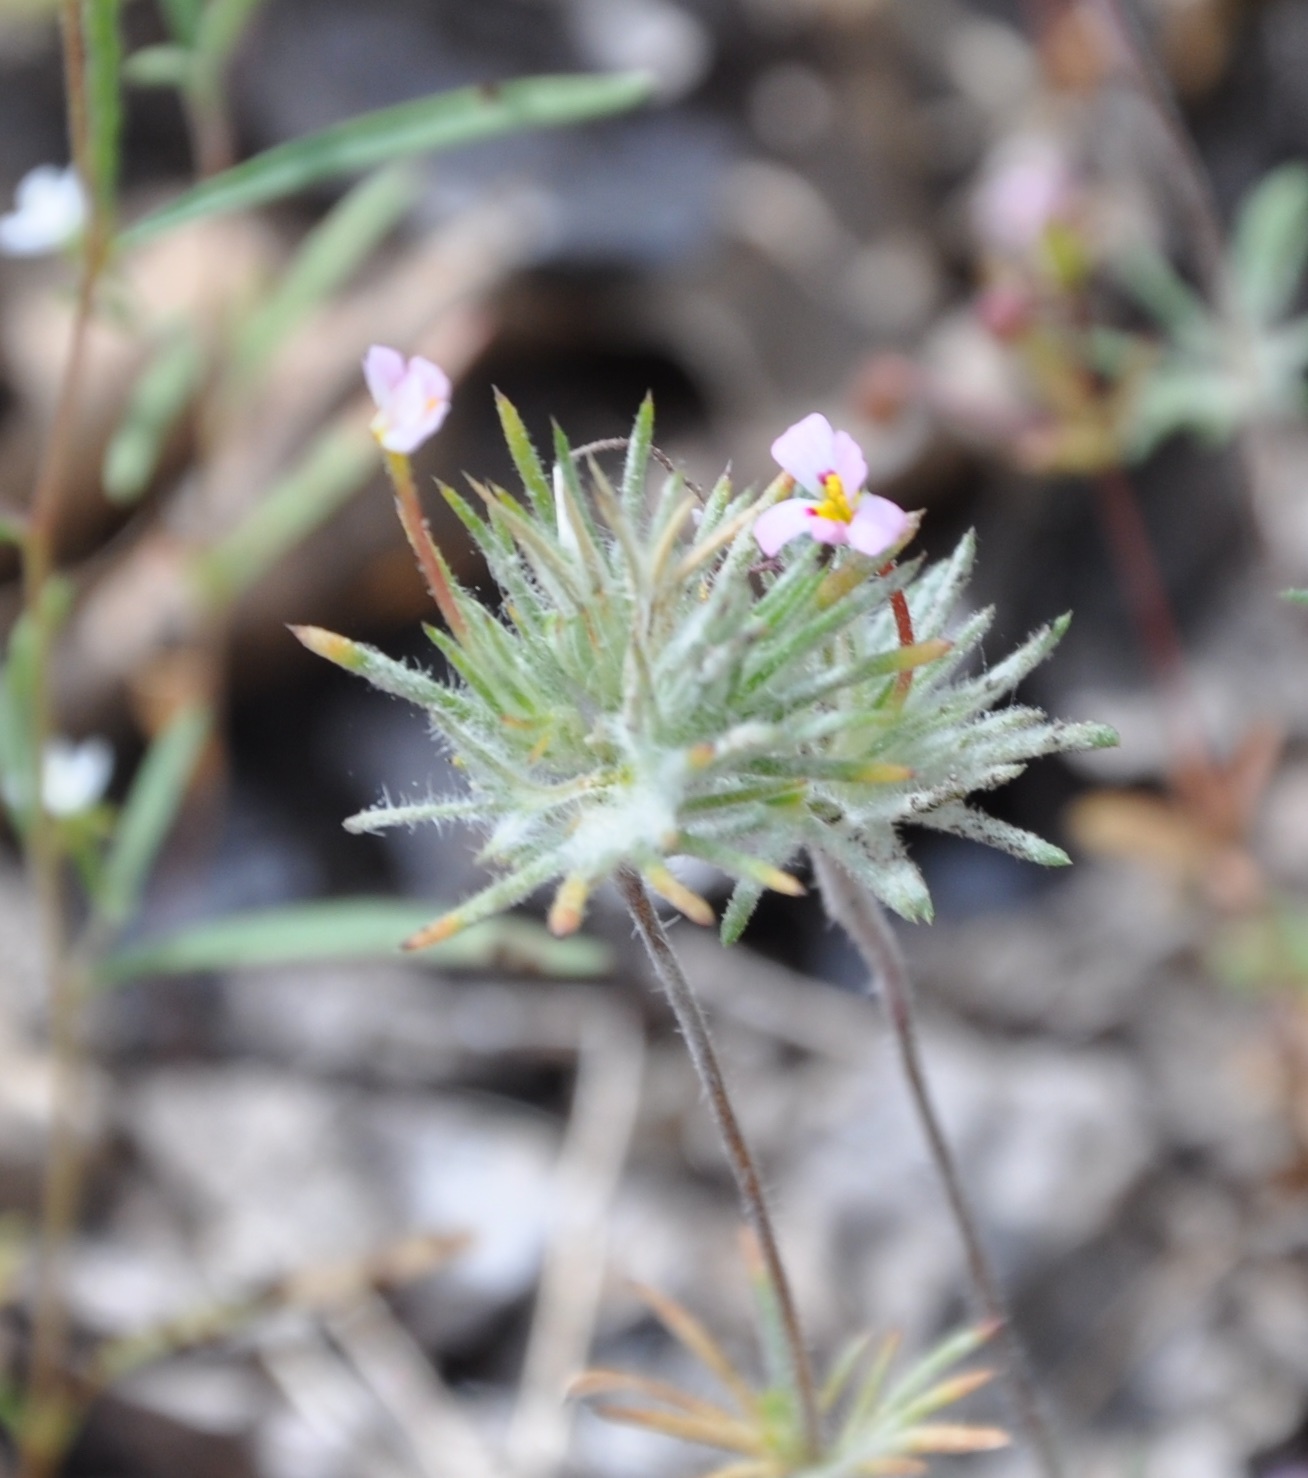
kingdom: Plantae
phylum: Tracheophyta
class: Magnoliopsida
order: Ericales
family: Polemoniaceae
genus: Leptosiphon
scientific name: Leptosiphon ciliatus
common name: Whiskerbrush
